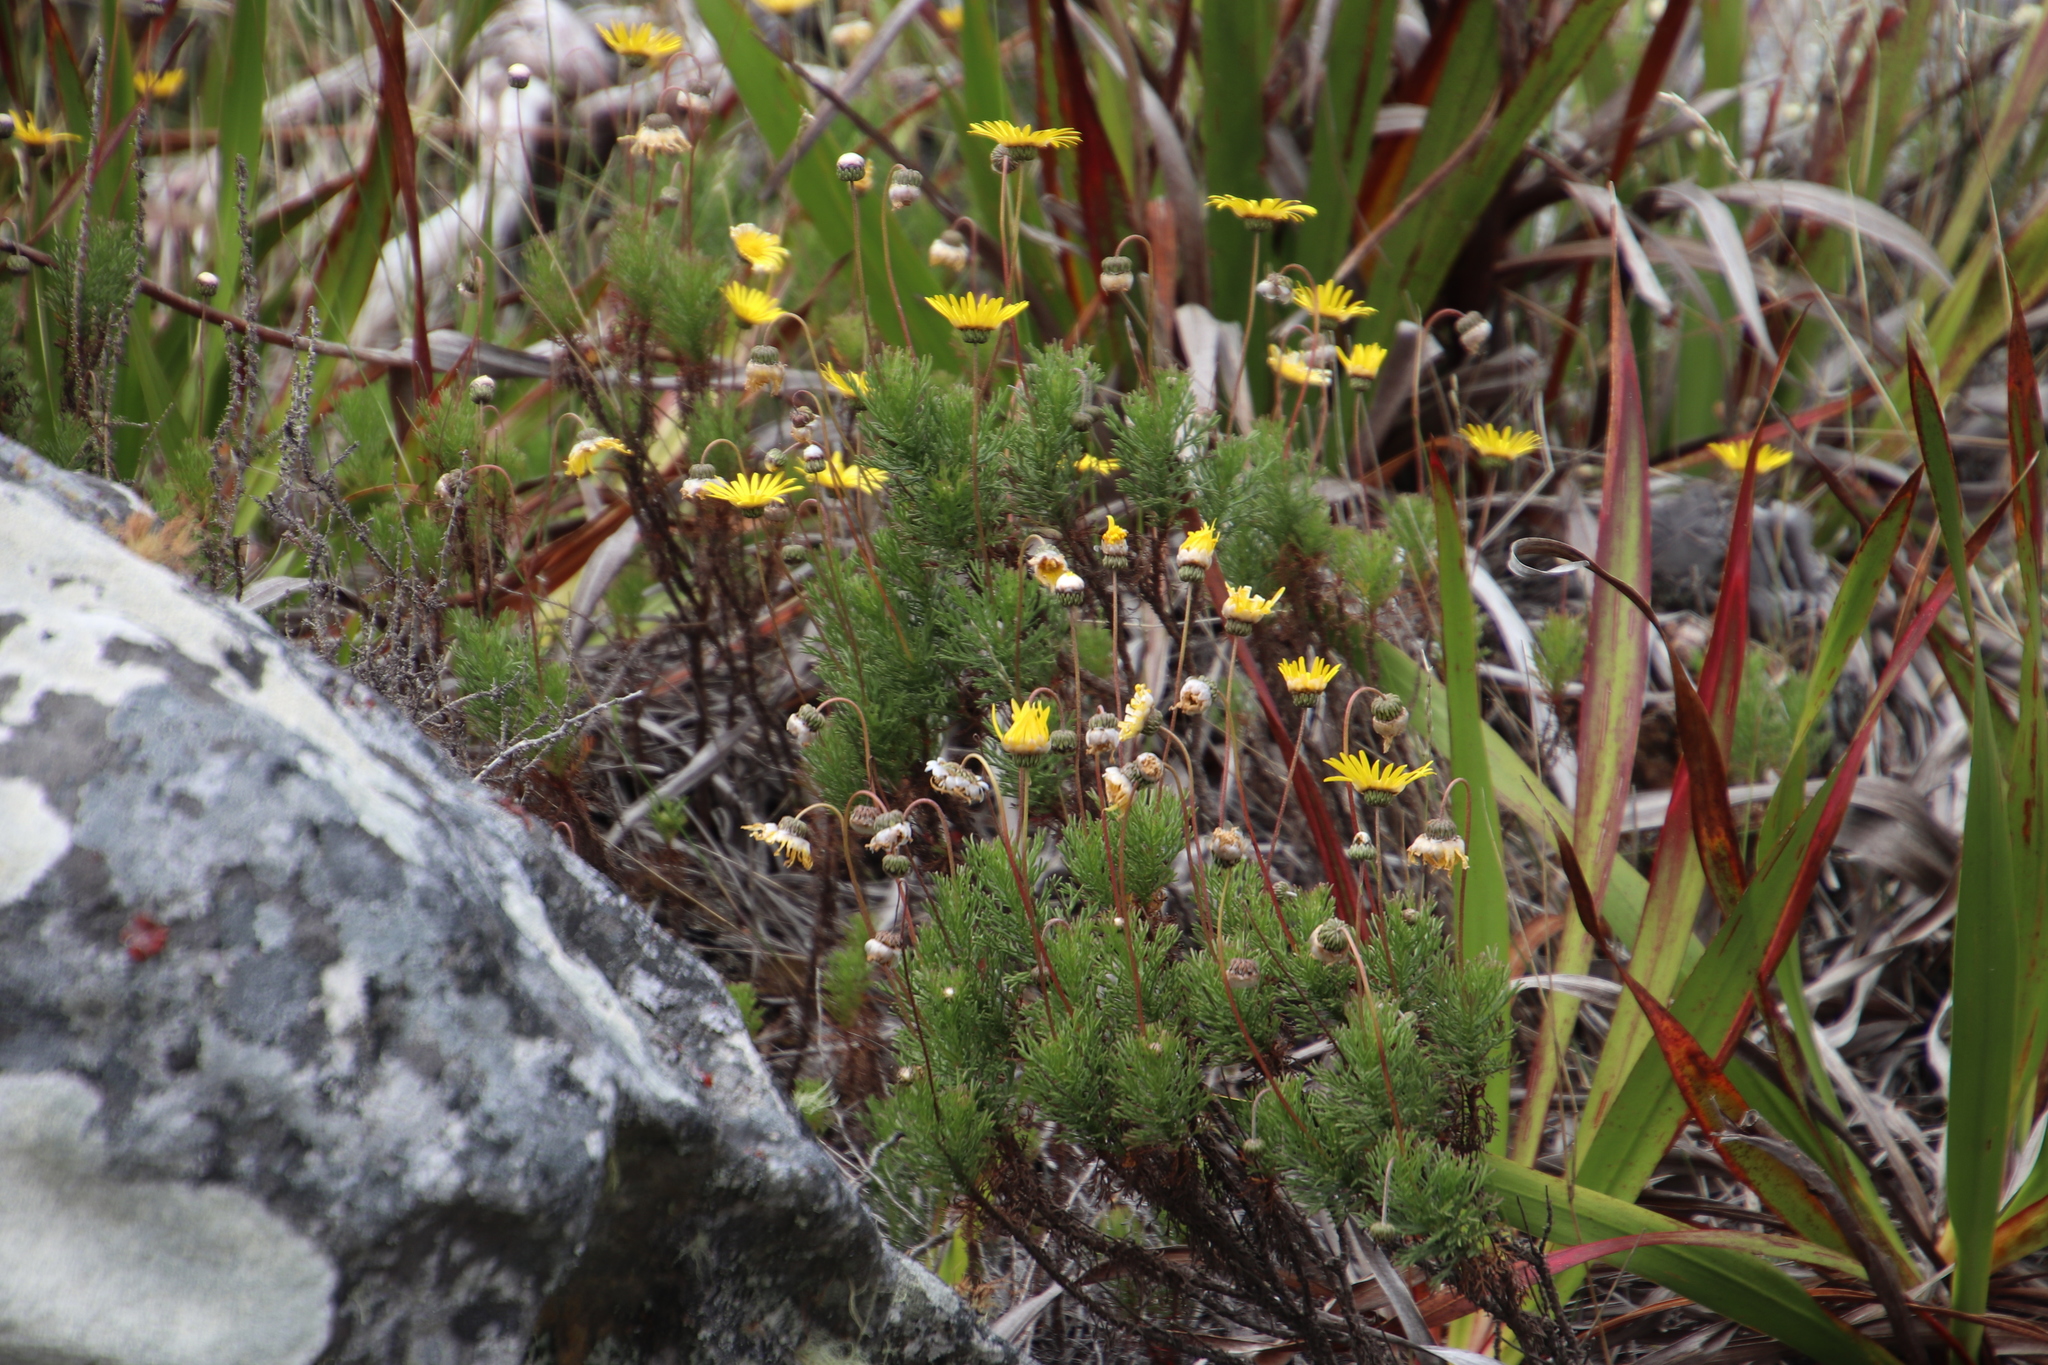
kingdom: Plantae
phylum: Tracheophyta
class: Magnoliopsida
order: Asterales
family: Asteraceae
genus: Euryops
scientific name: Euryops abrotanifolius
